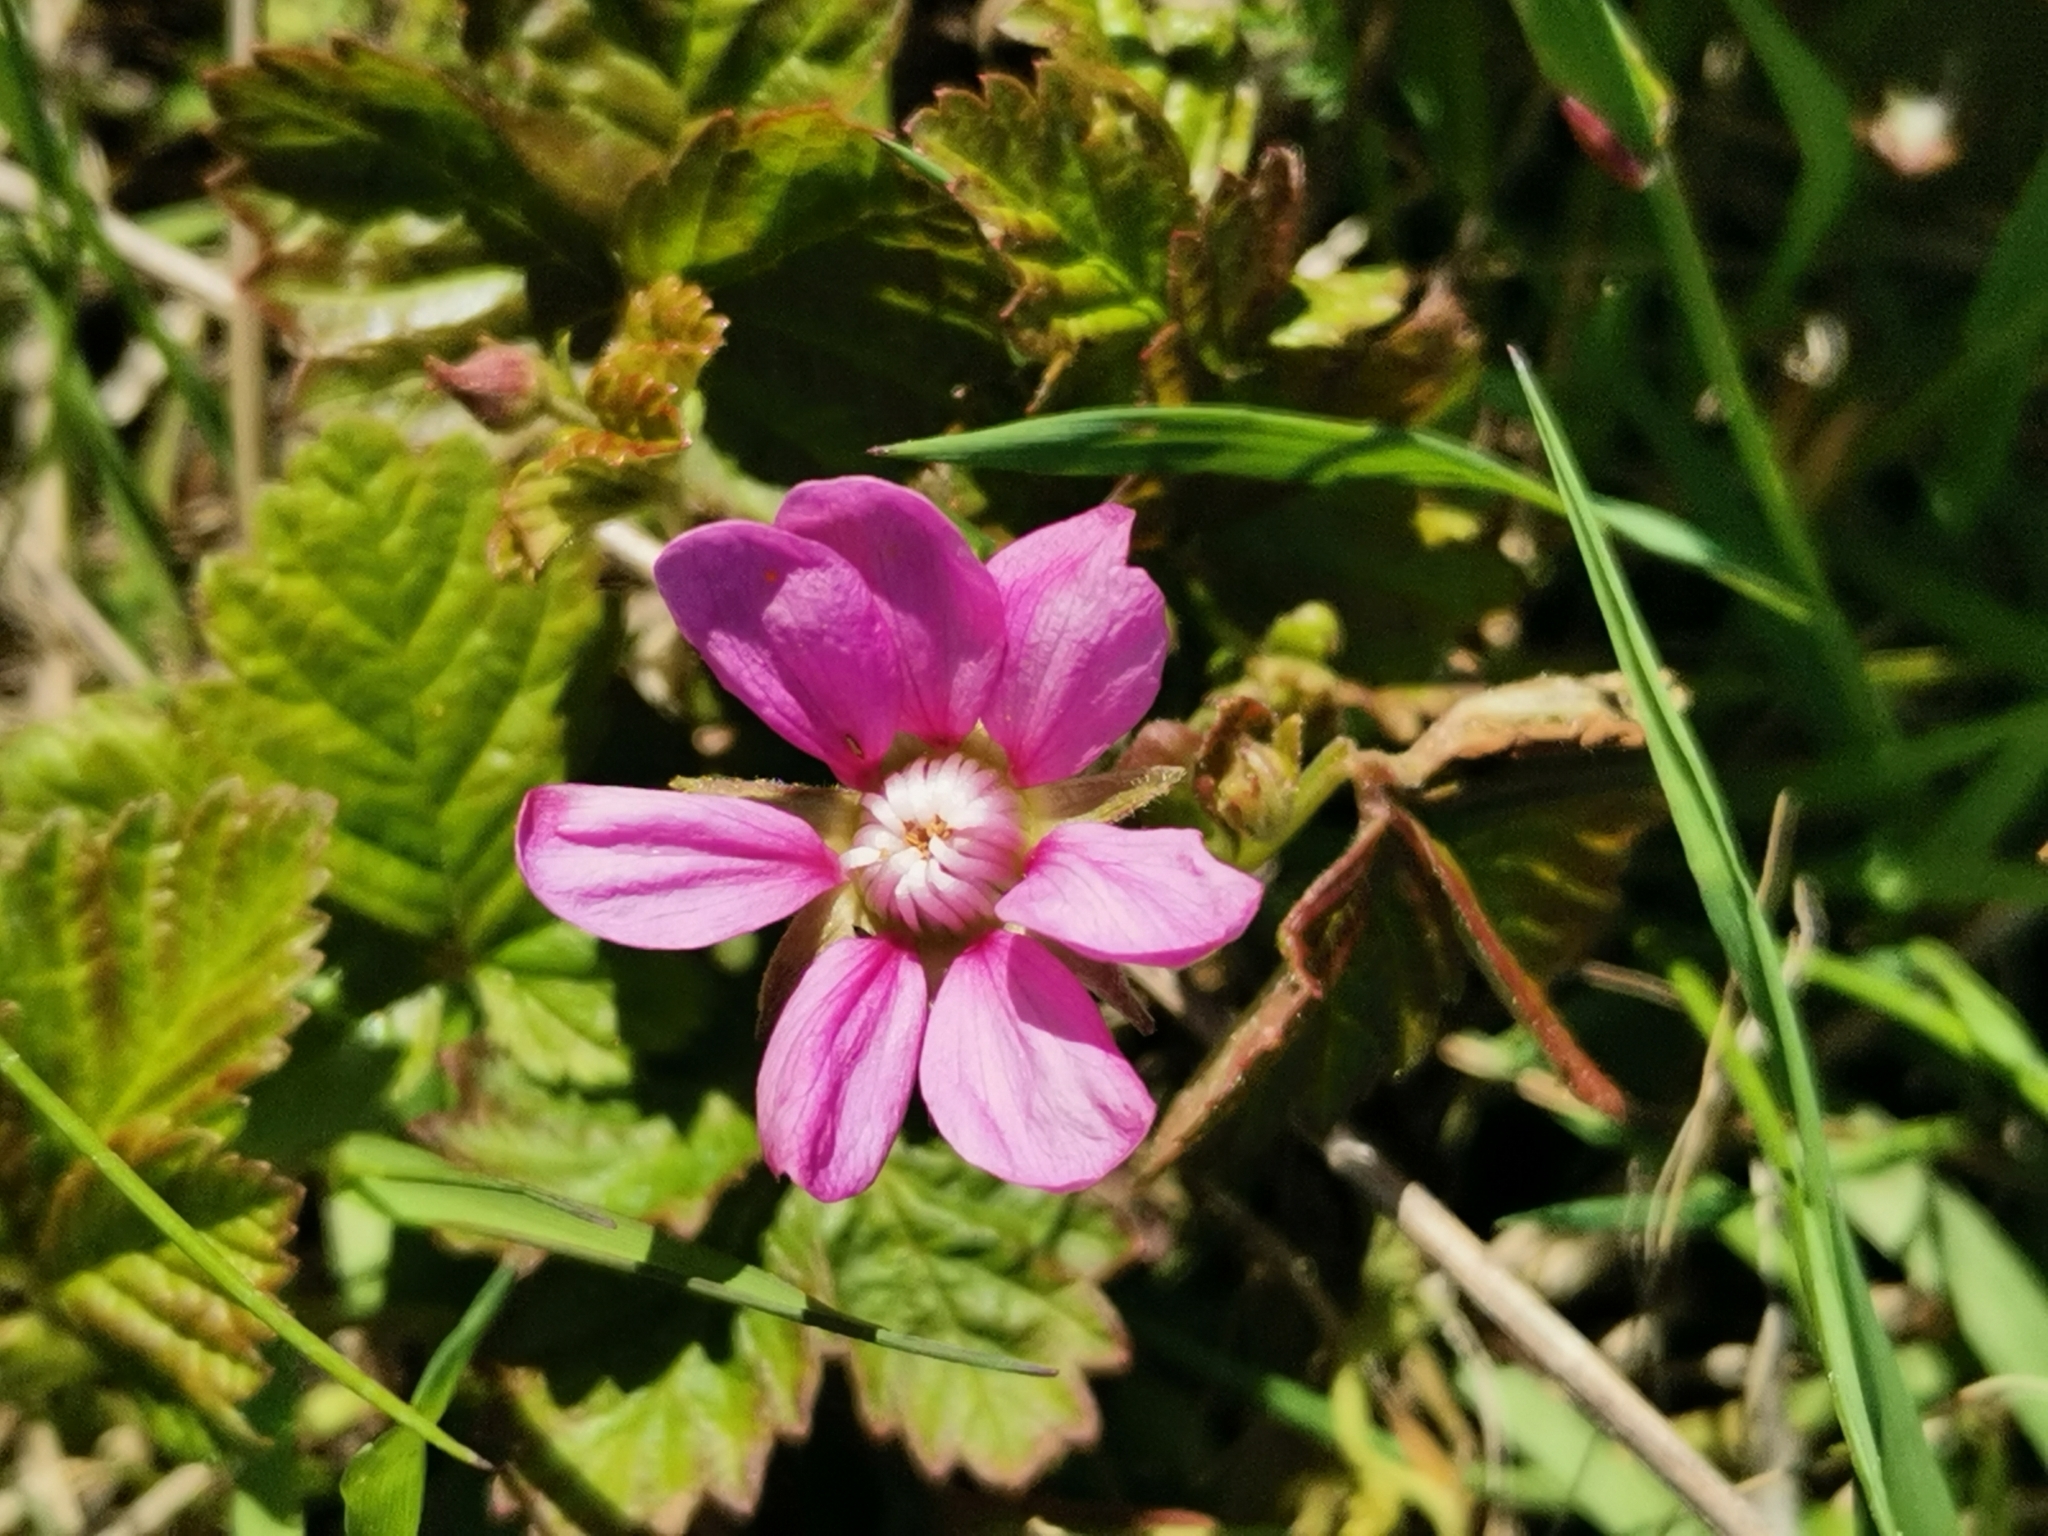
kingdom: Plantae
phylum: Tracheophyta
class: Magnoliopsida
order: Rosales
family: Rosaceae
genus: Rubus
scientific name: Rubus arcticus
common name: Arctic bramble
